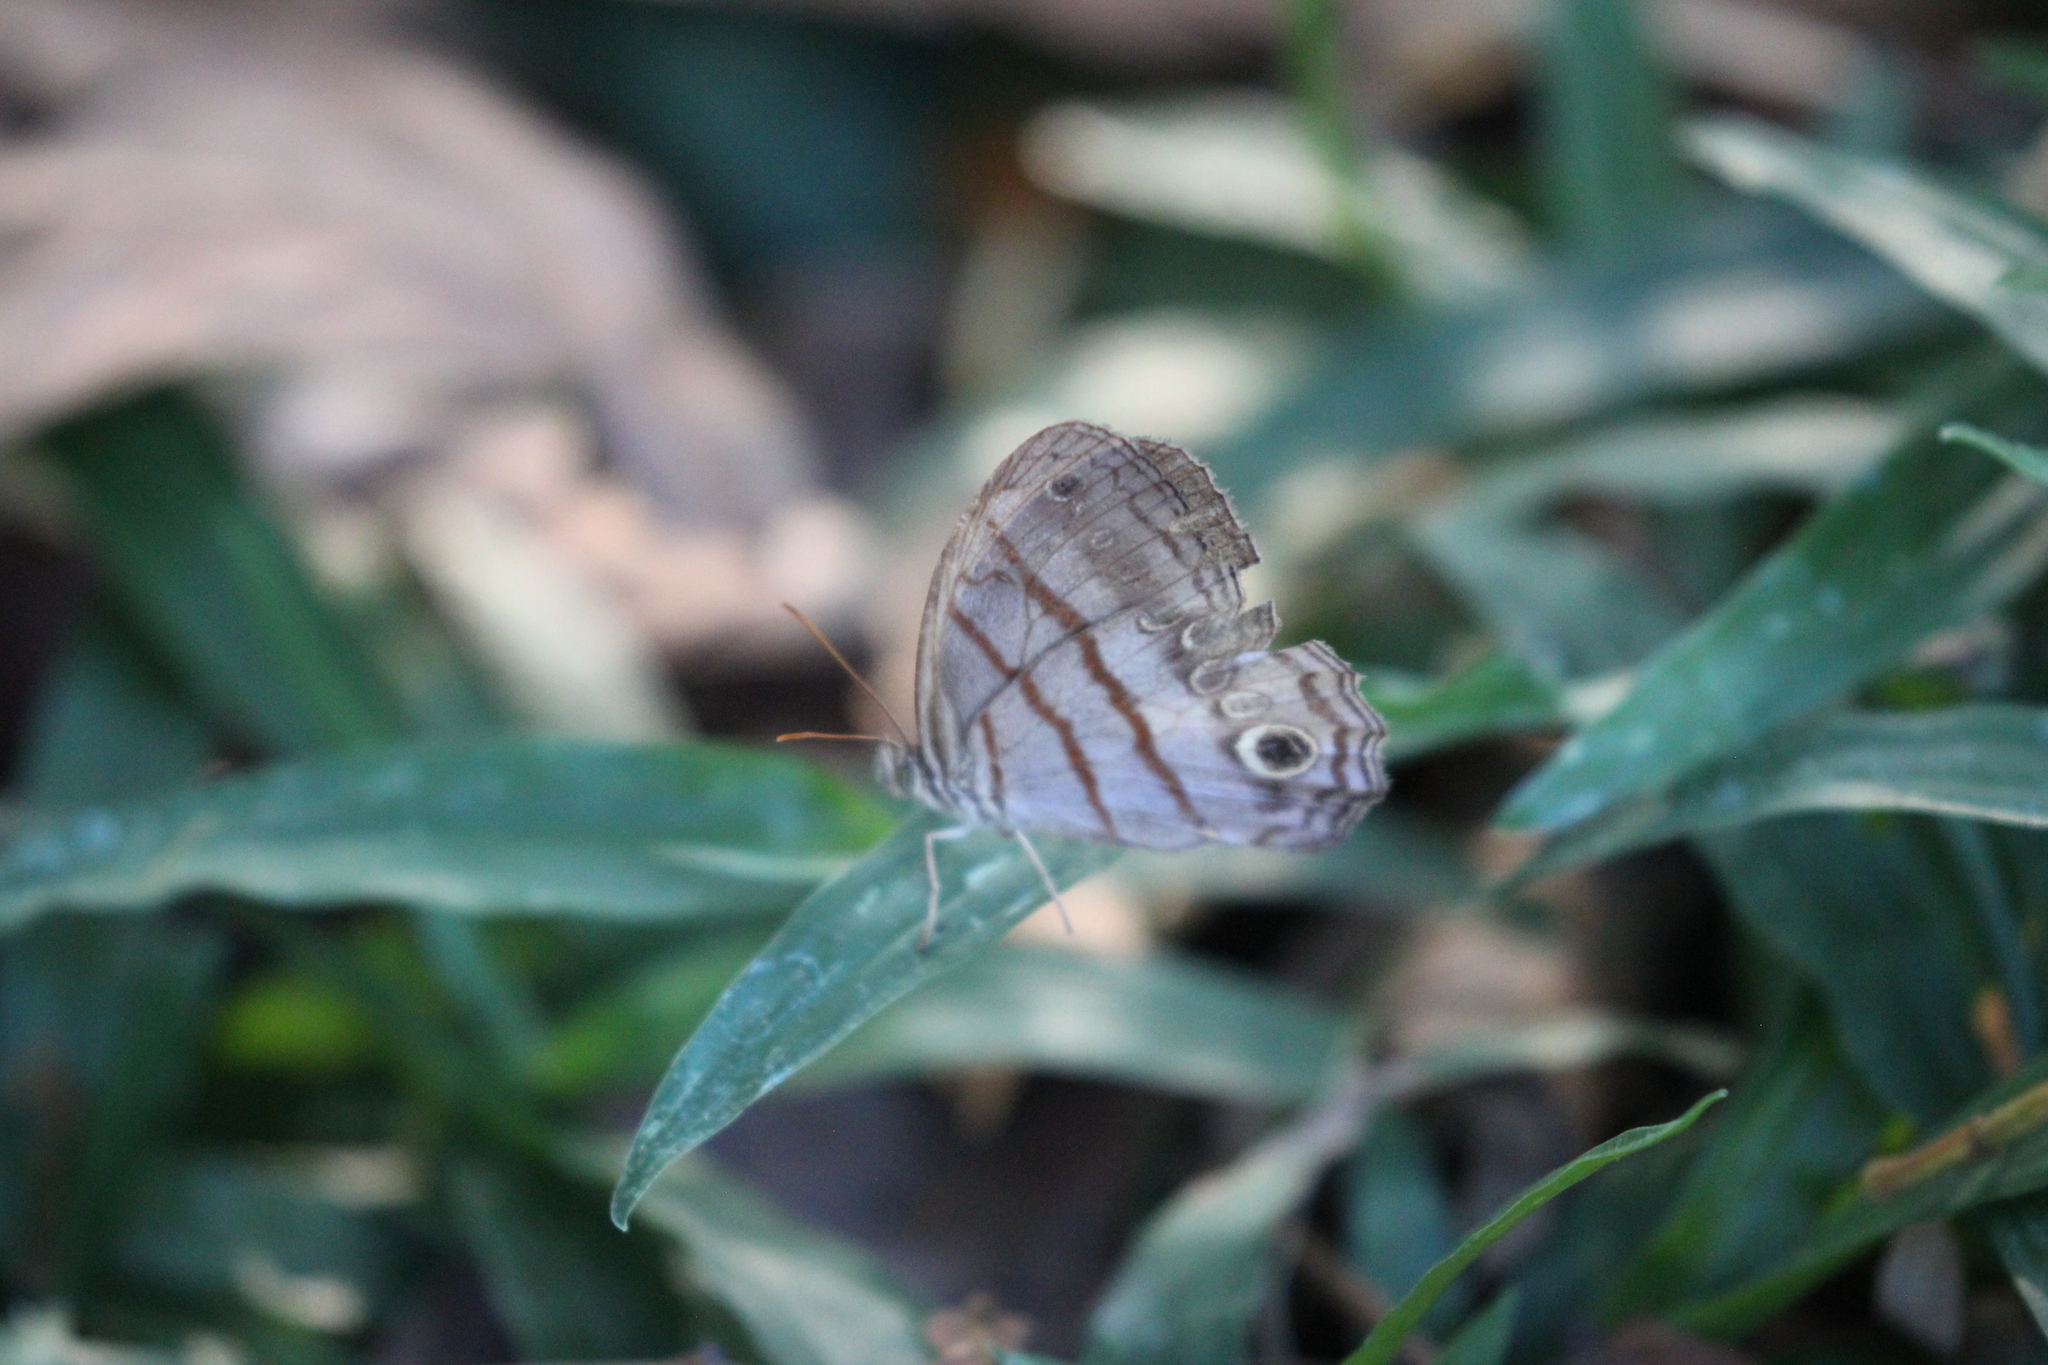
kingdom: Animalia
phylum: Arthropoda
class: Insecta
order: Lepidoptera
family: Nymphalidae
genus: Magneuptychia
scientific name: Magneuptychia libye
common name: Blue-gray satyr
